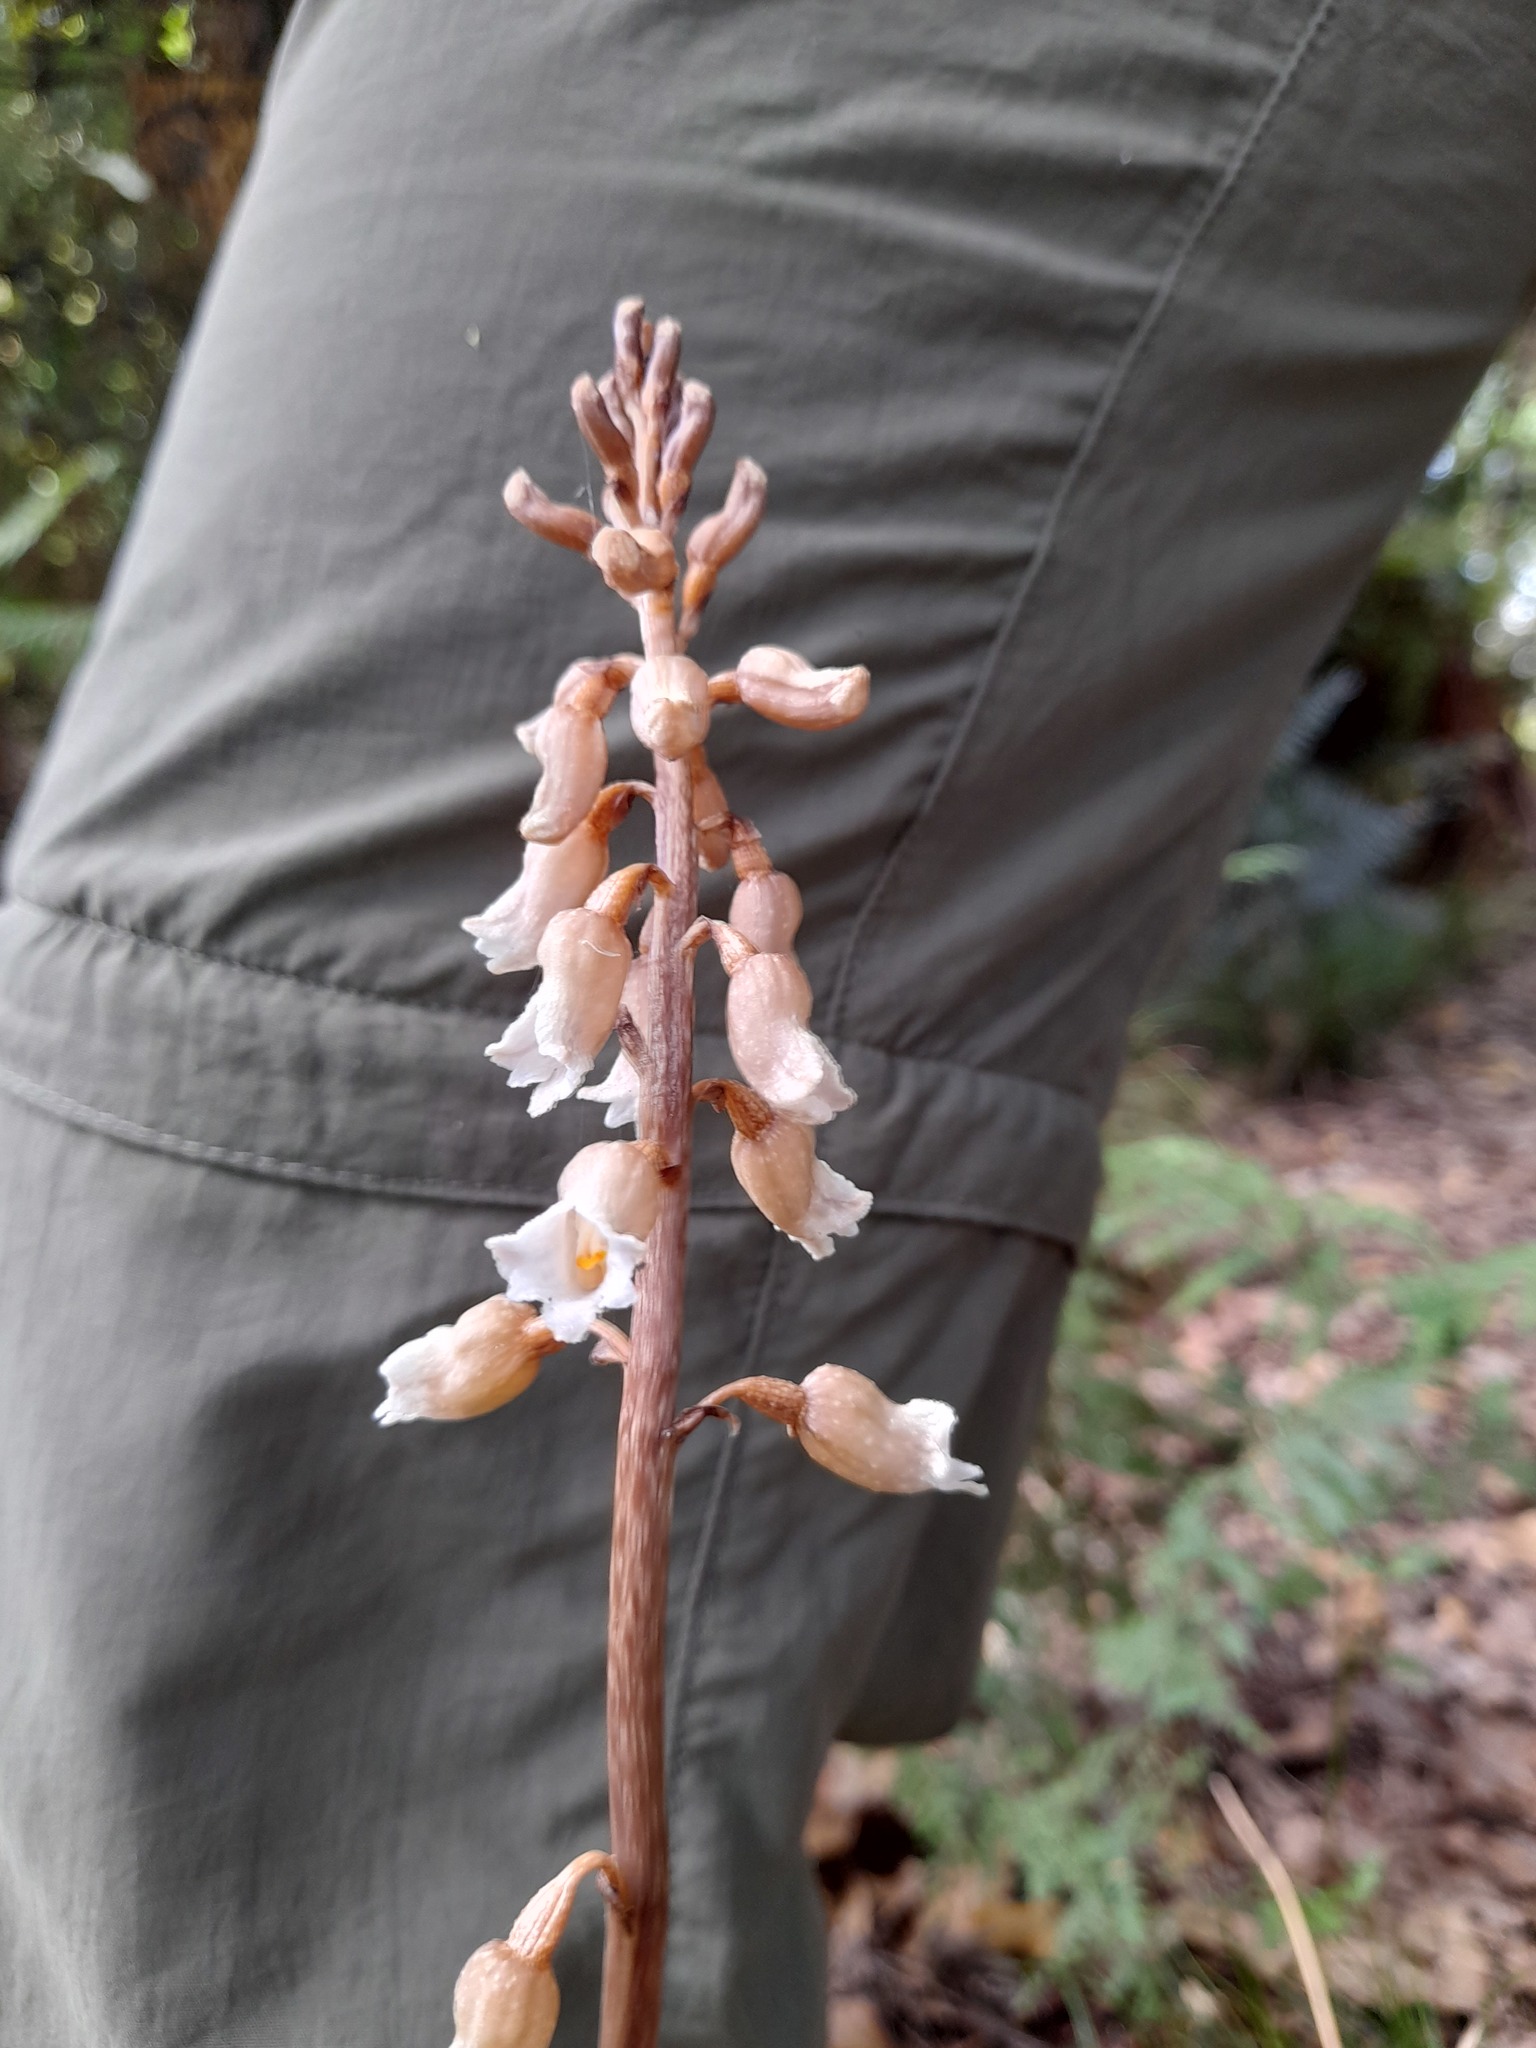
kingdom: Plantae
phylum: Tracheophyta
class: Liliopsida
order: Asparagales
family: Orchidaceae
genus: Gastrodia
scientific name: Gastrodia sesamoides
